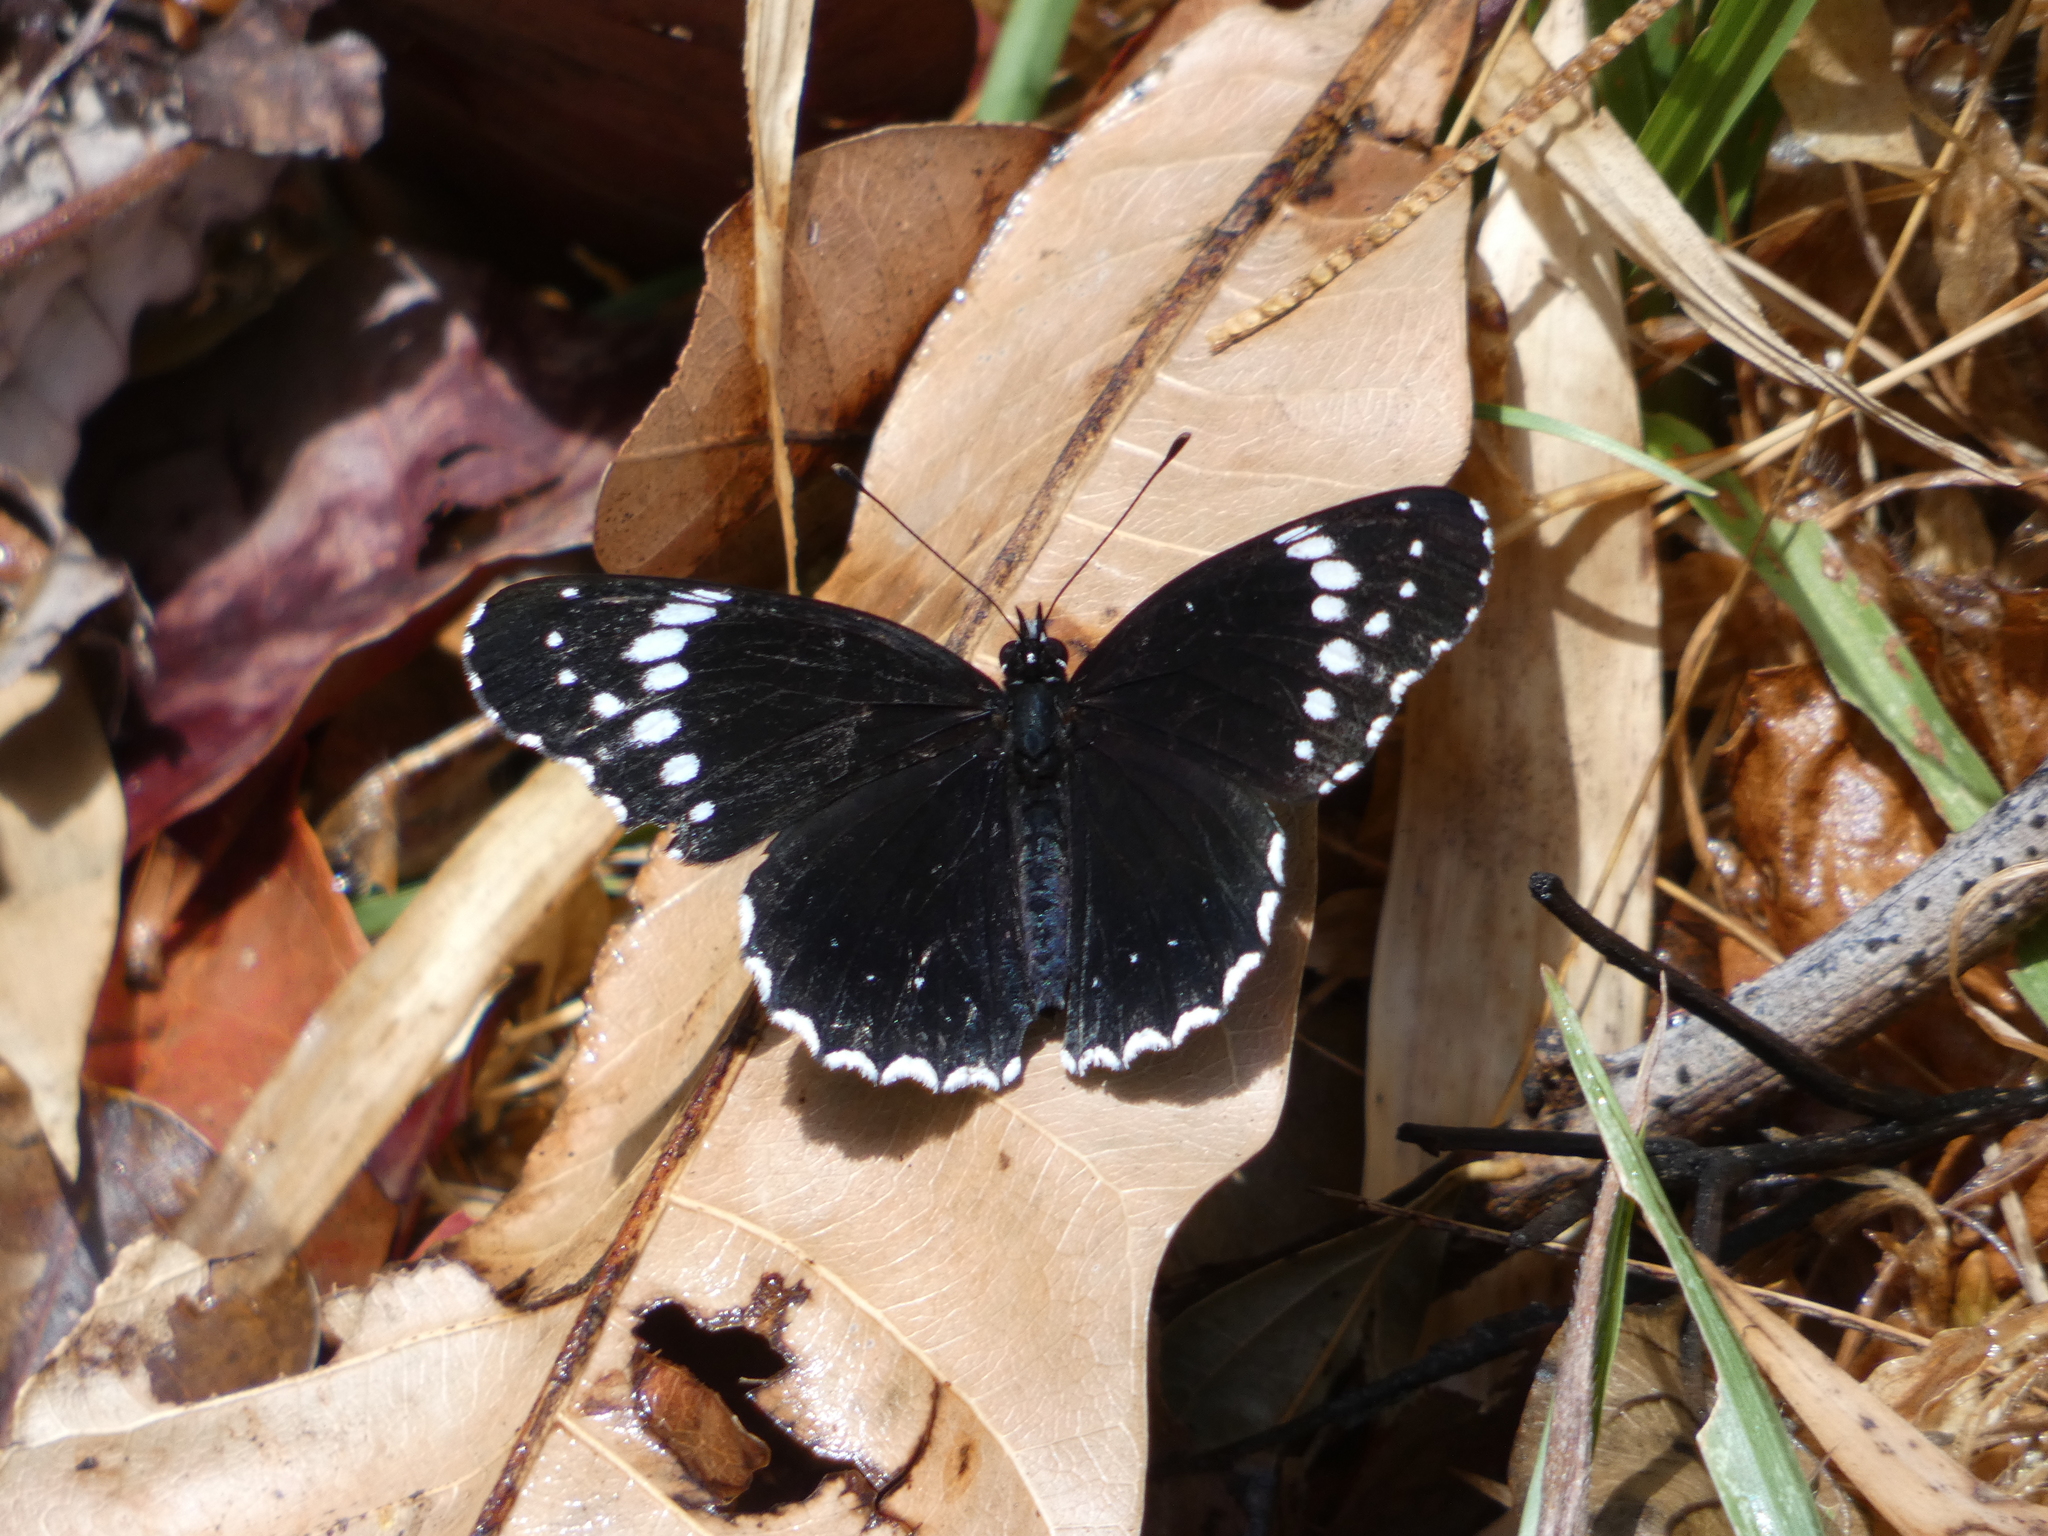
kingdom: Animalia
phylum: Arthropoda
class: Insecta
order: Lepidoptera
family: Nymphalidae
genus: Chlosyne
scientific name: Chlosyne hippodrome
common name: Simple patch
